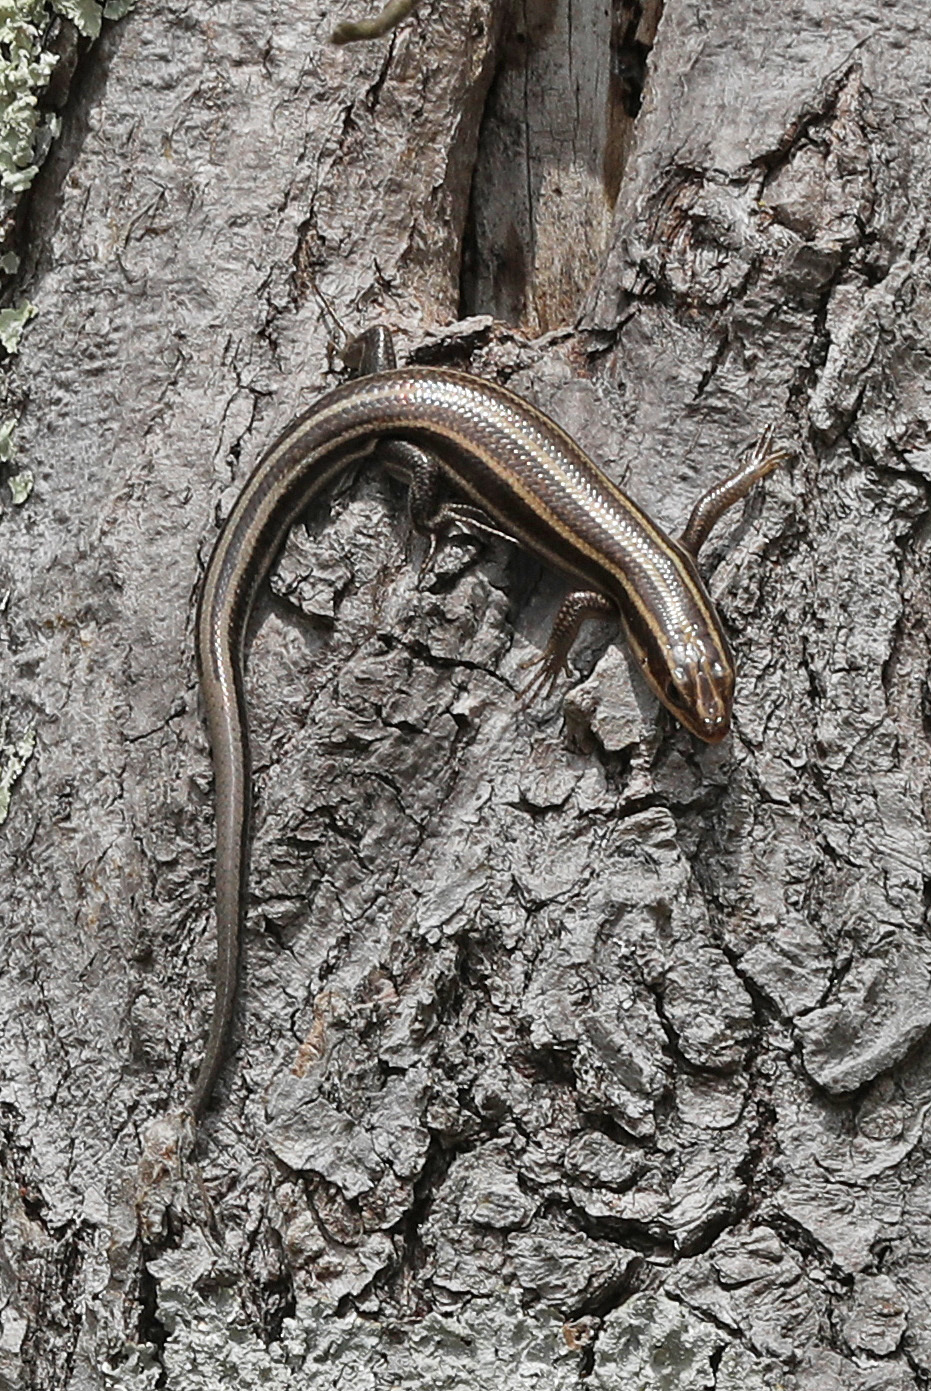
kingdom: Animalia
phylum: Chordata
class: Squamata
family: Scincidae
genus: Plestiodon
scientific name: Plestiodon fasciatus
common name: Five-lined skink
